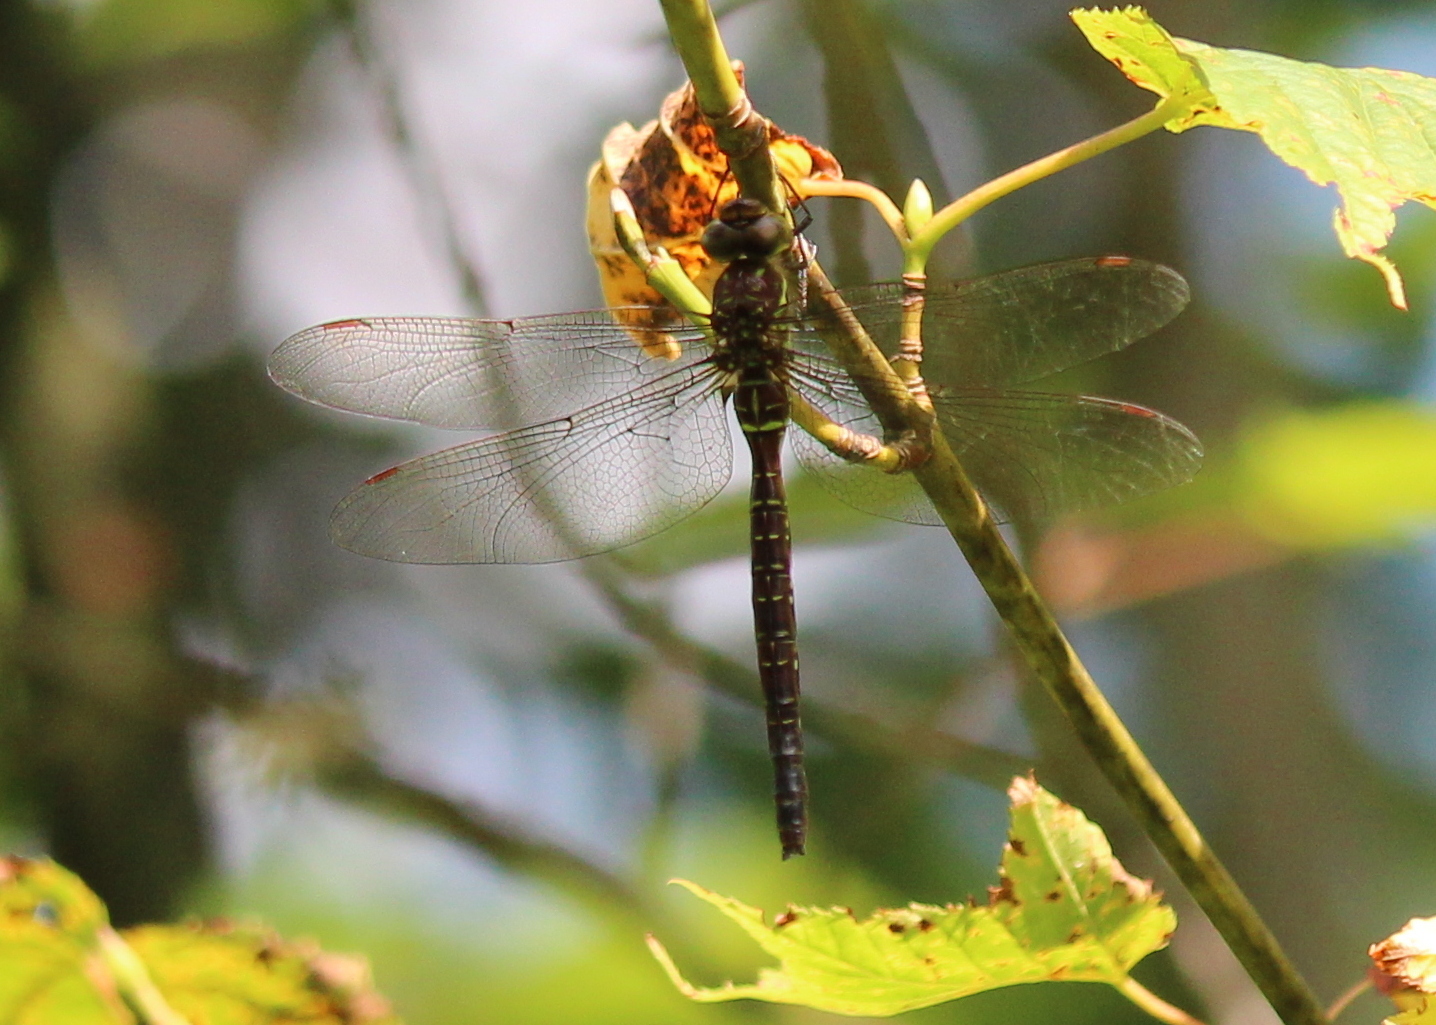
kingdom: Animalia
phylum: Arthropoda
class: Insecta
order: Odonata
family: Aeshnidae
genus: Aeshna
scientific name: Aeshna umbrosa
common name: Shadow darner
